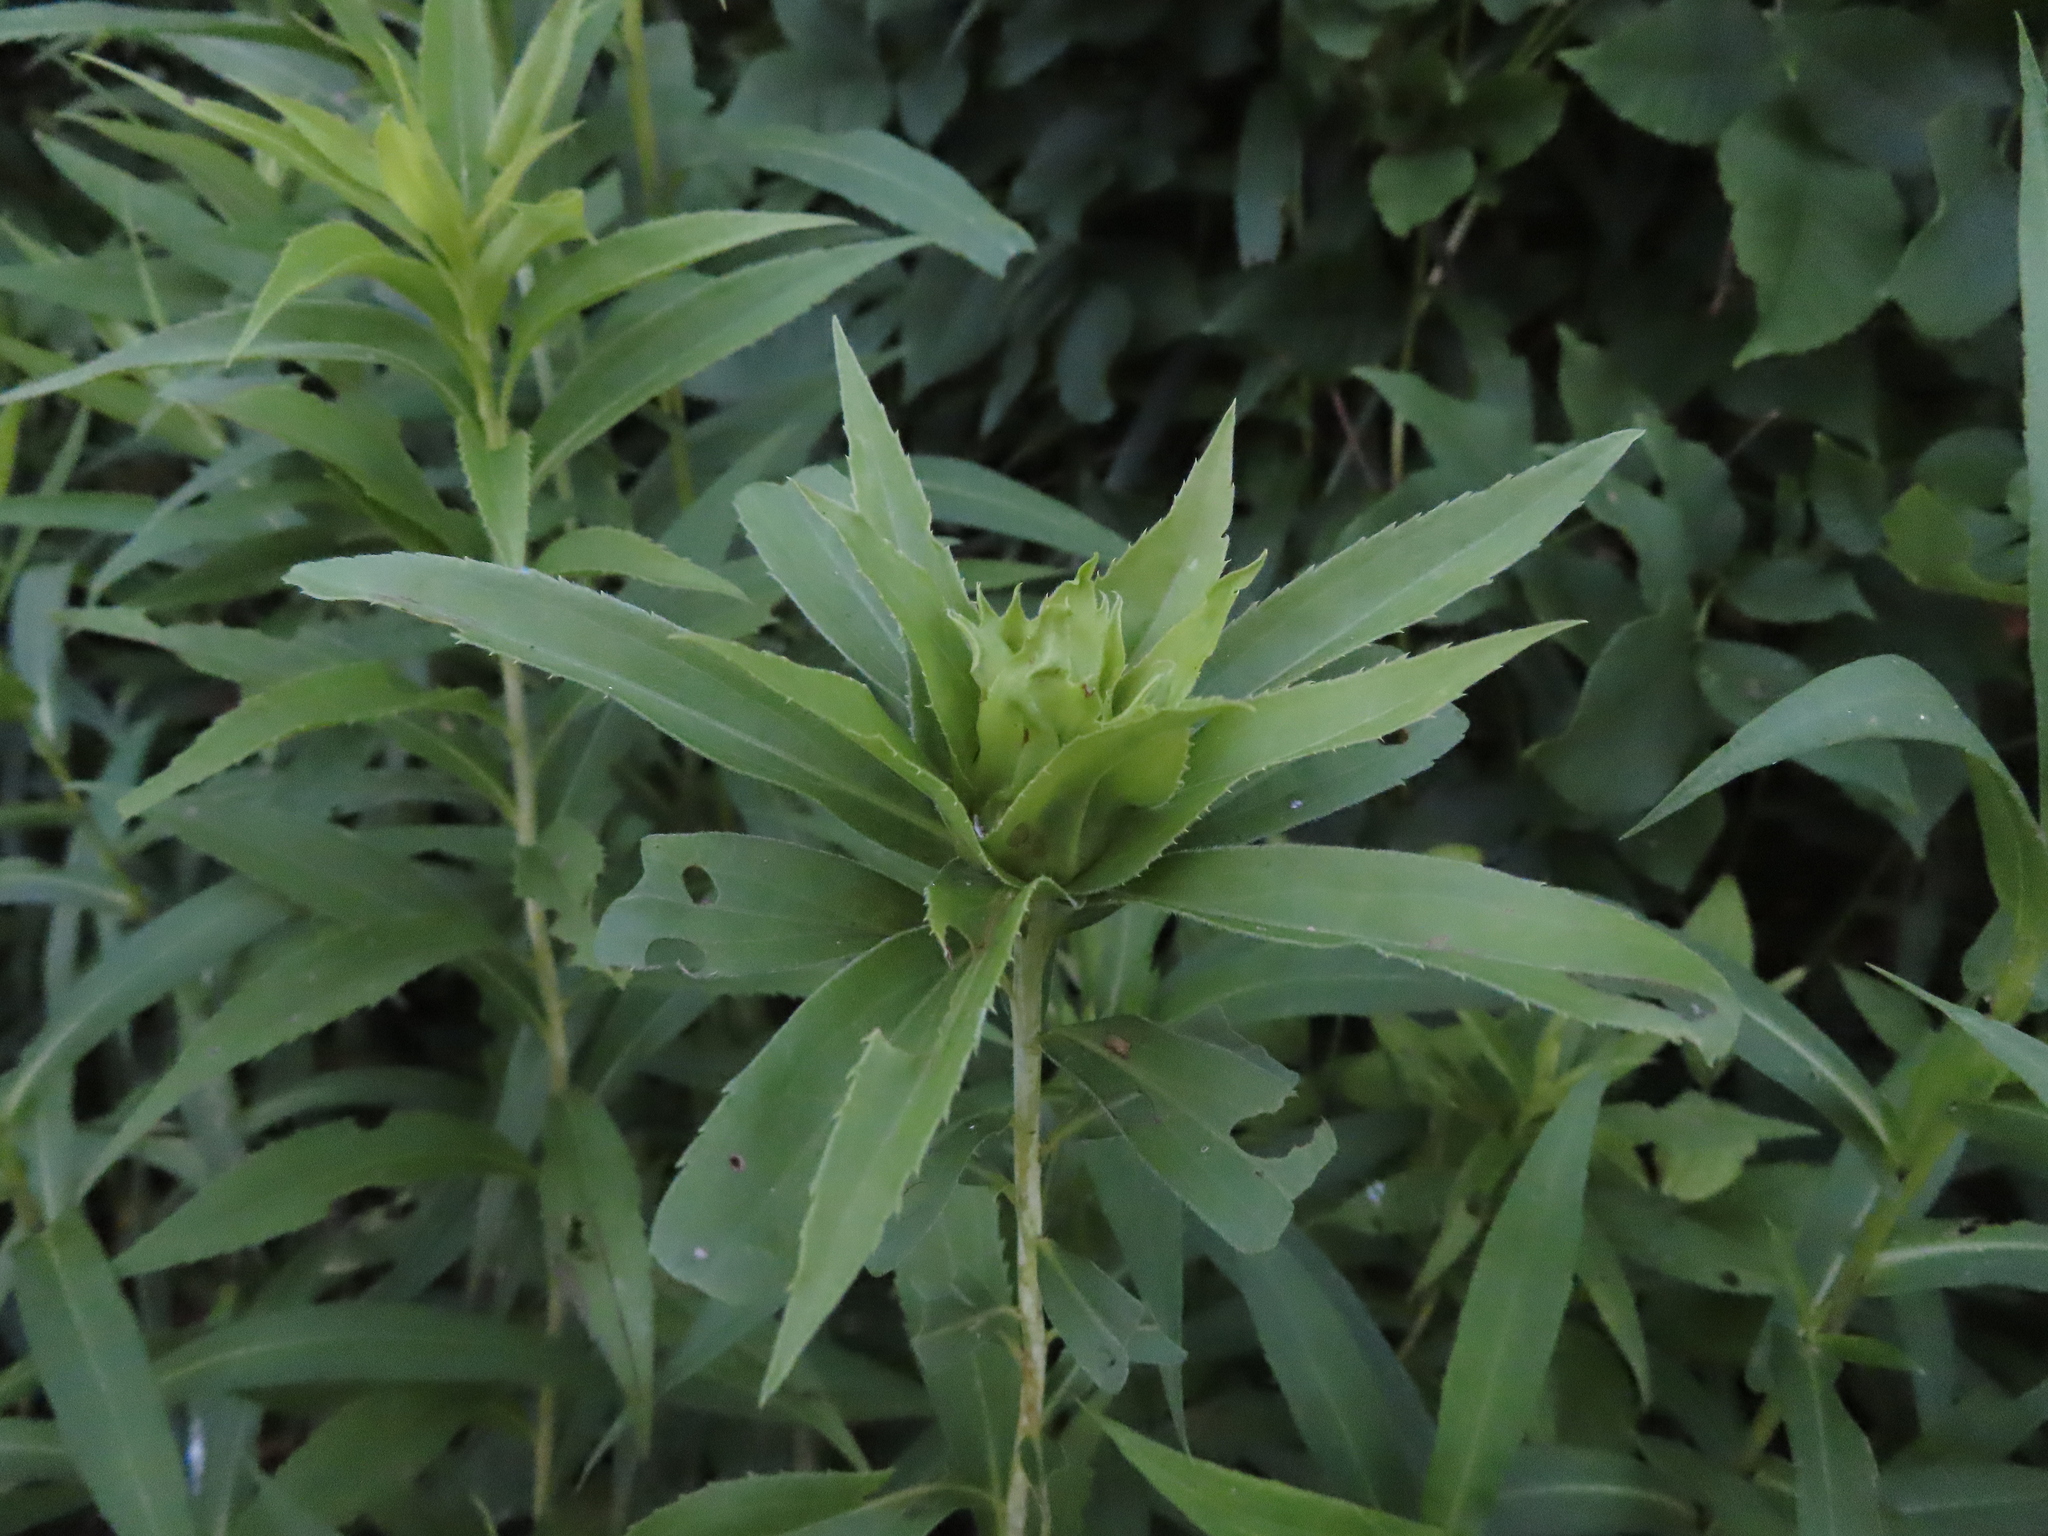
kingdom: Animalia
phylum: Arthropoda
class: Insecta
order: Diptera
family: Cecidomyiidae
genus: Rhopalomyia
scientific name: Rhopalomyia capitata
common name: Giant goldenrod bunch gall midge
